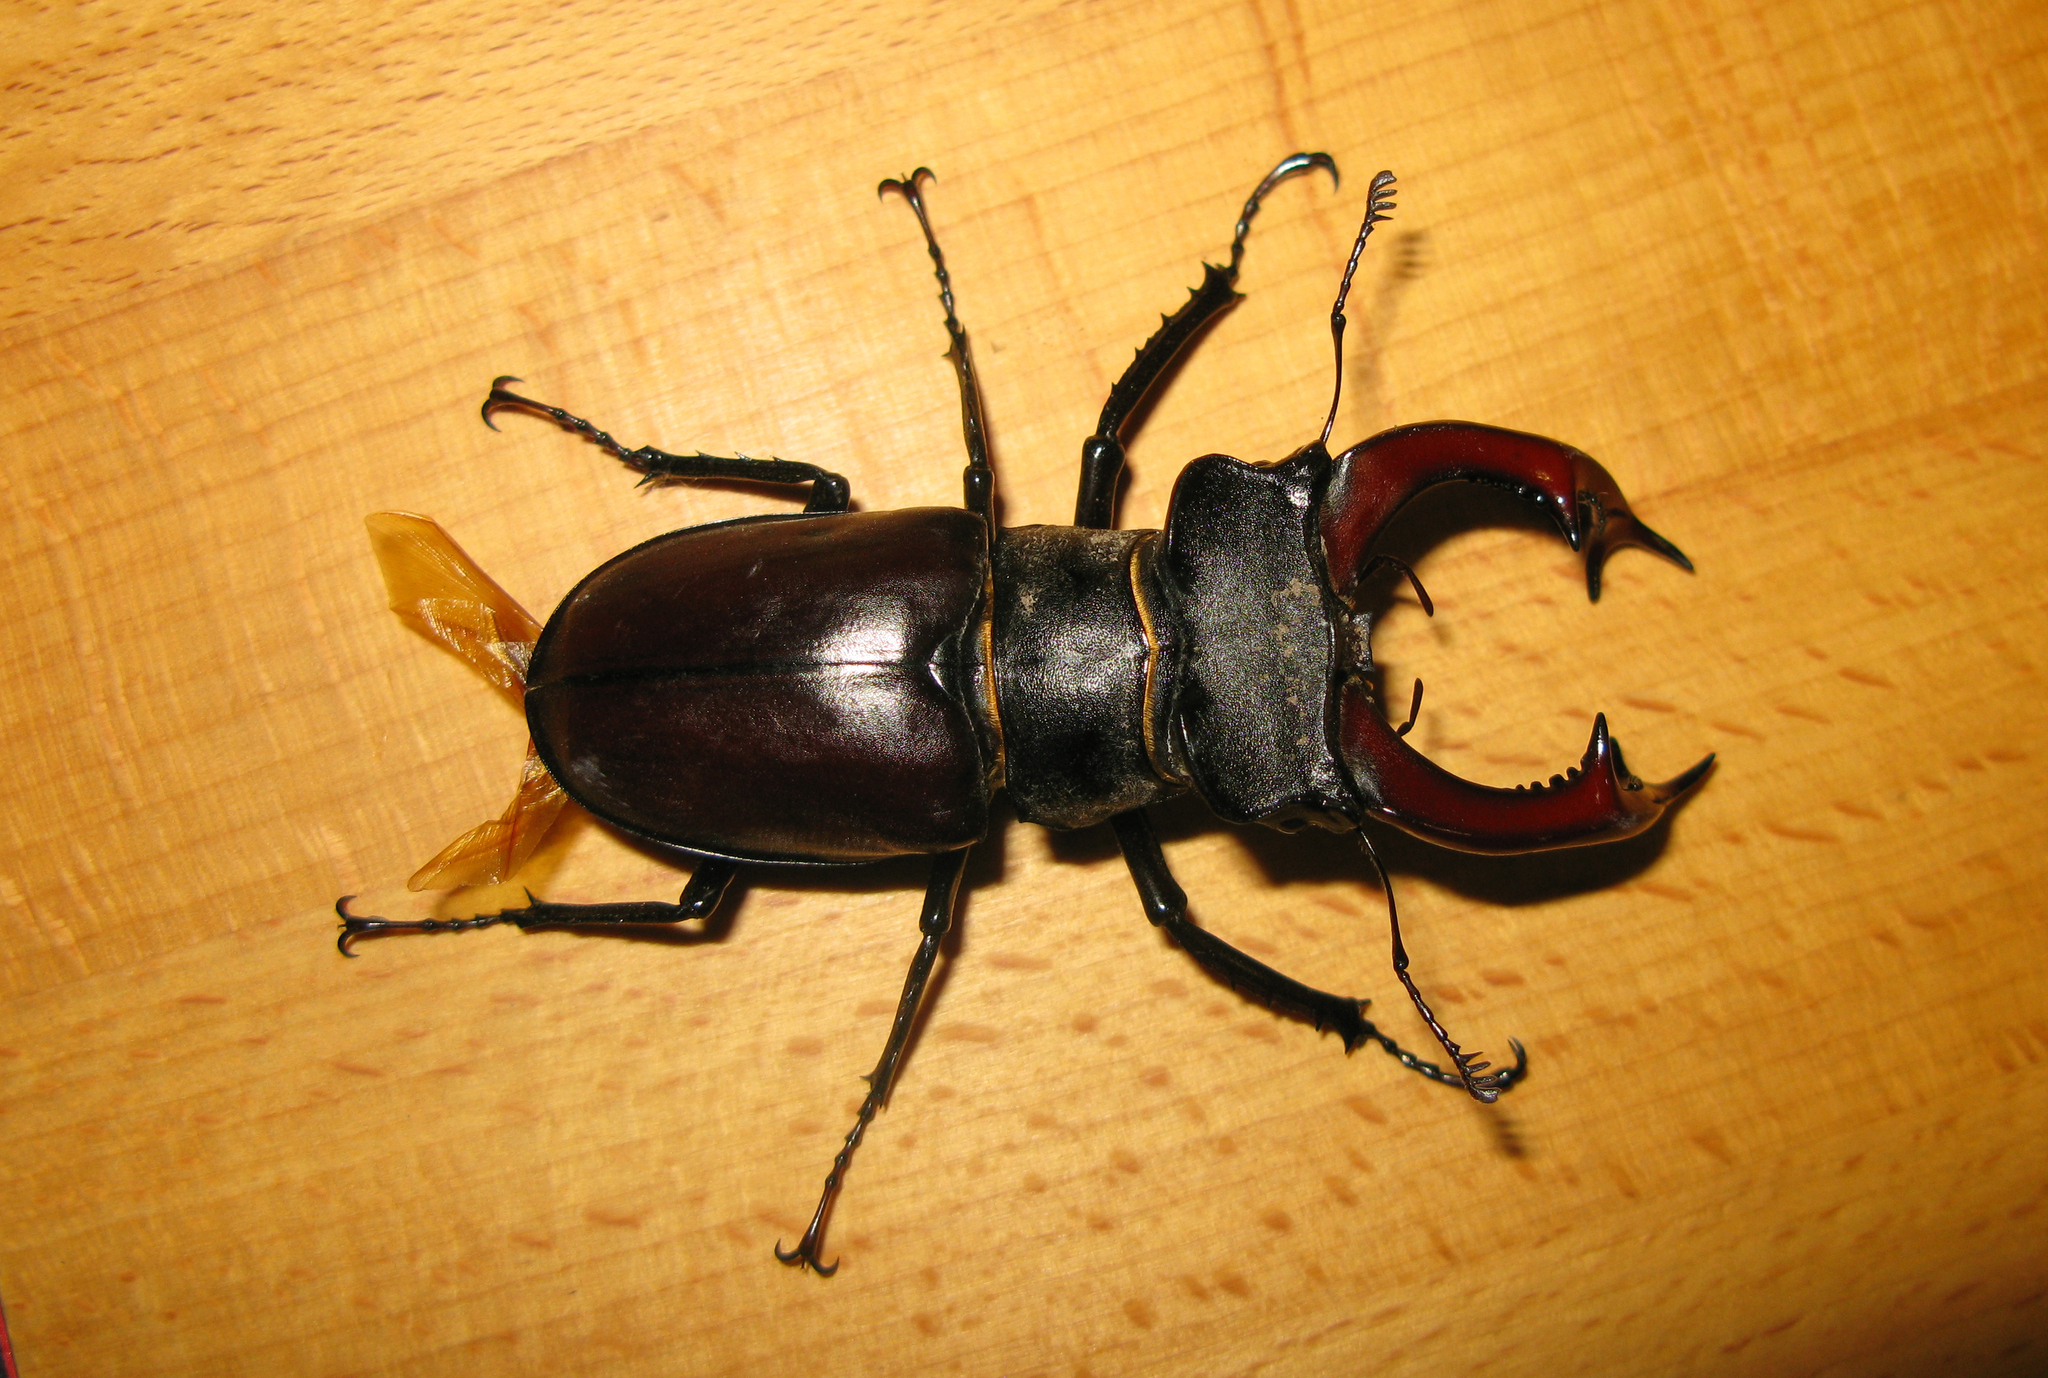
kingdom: Animalia
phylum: Arthropoda
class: Insecta
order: Coleoptera
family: Lucanidae
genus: Lucanus
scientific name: Lucanus cervus
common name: Stag beetle
